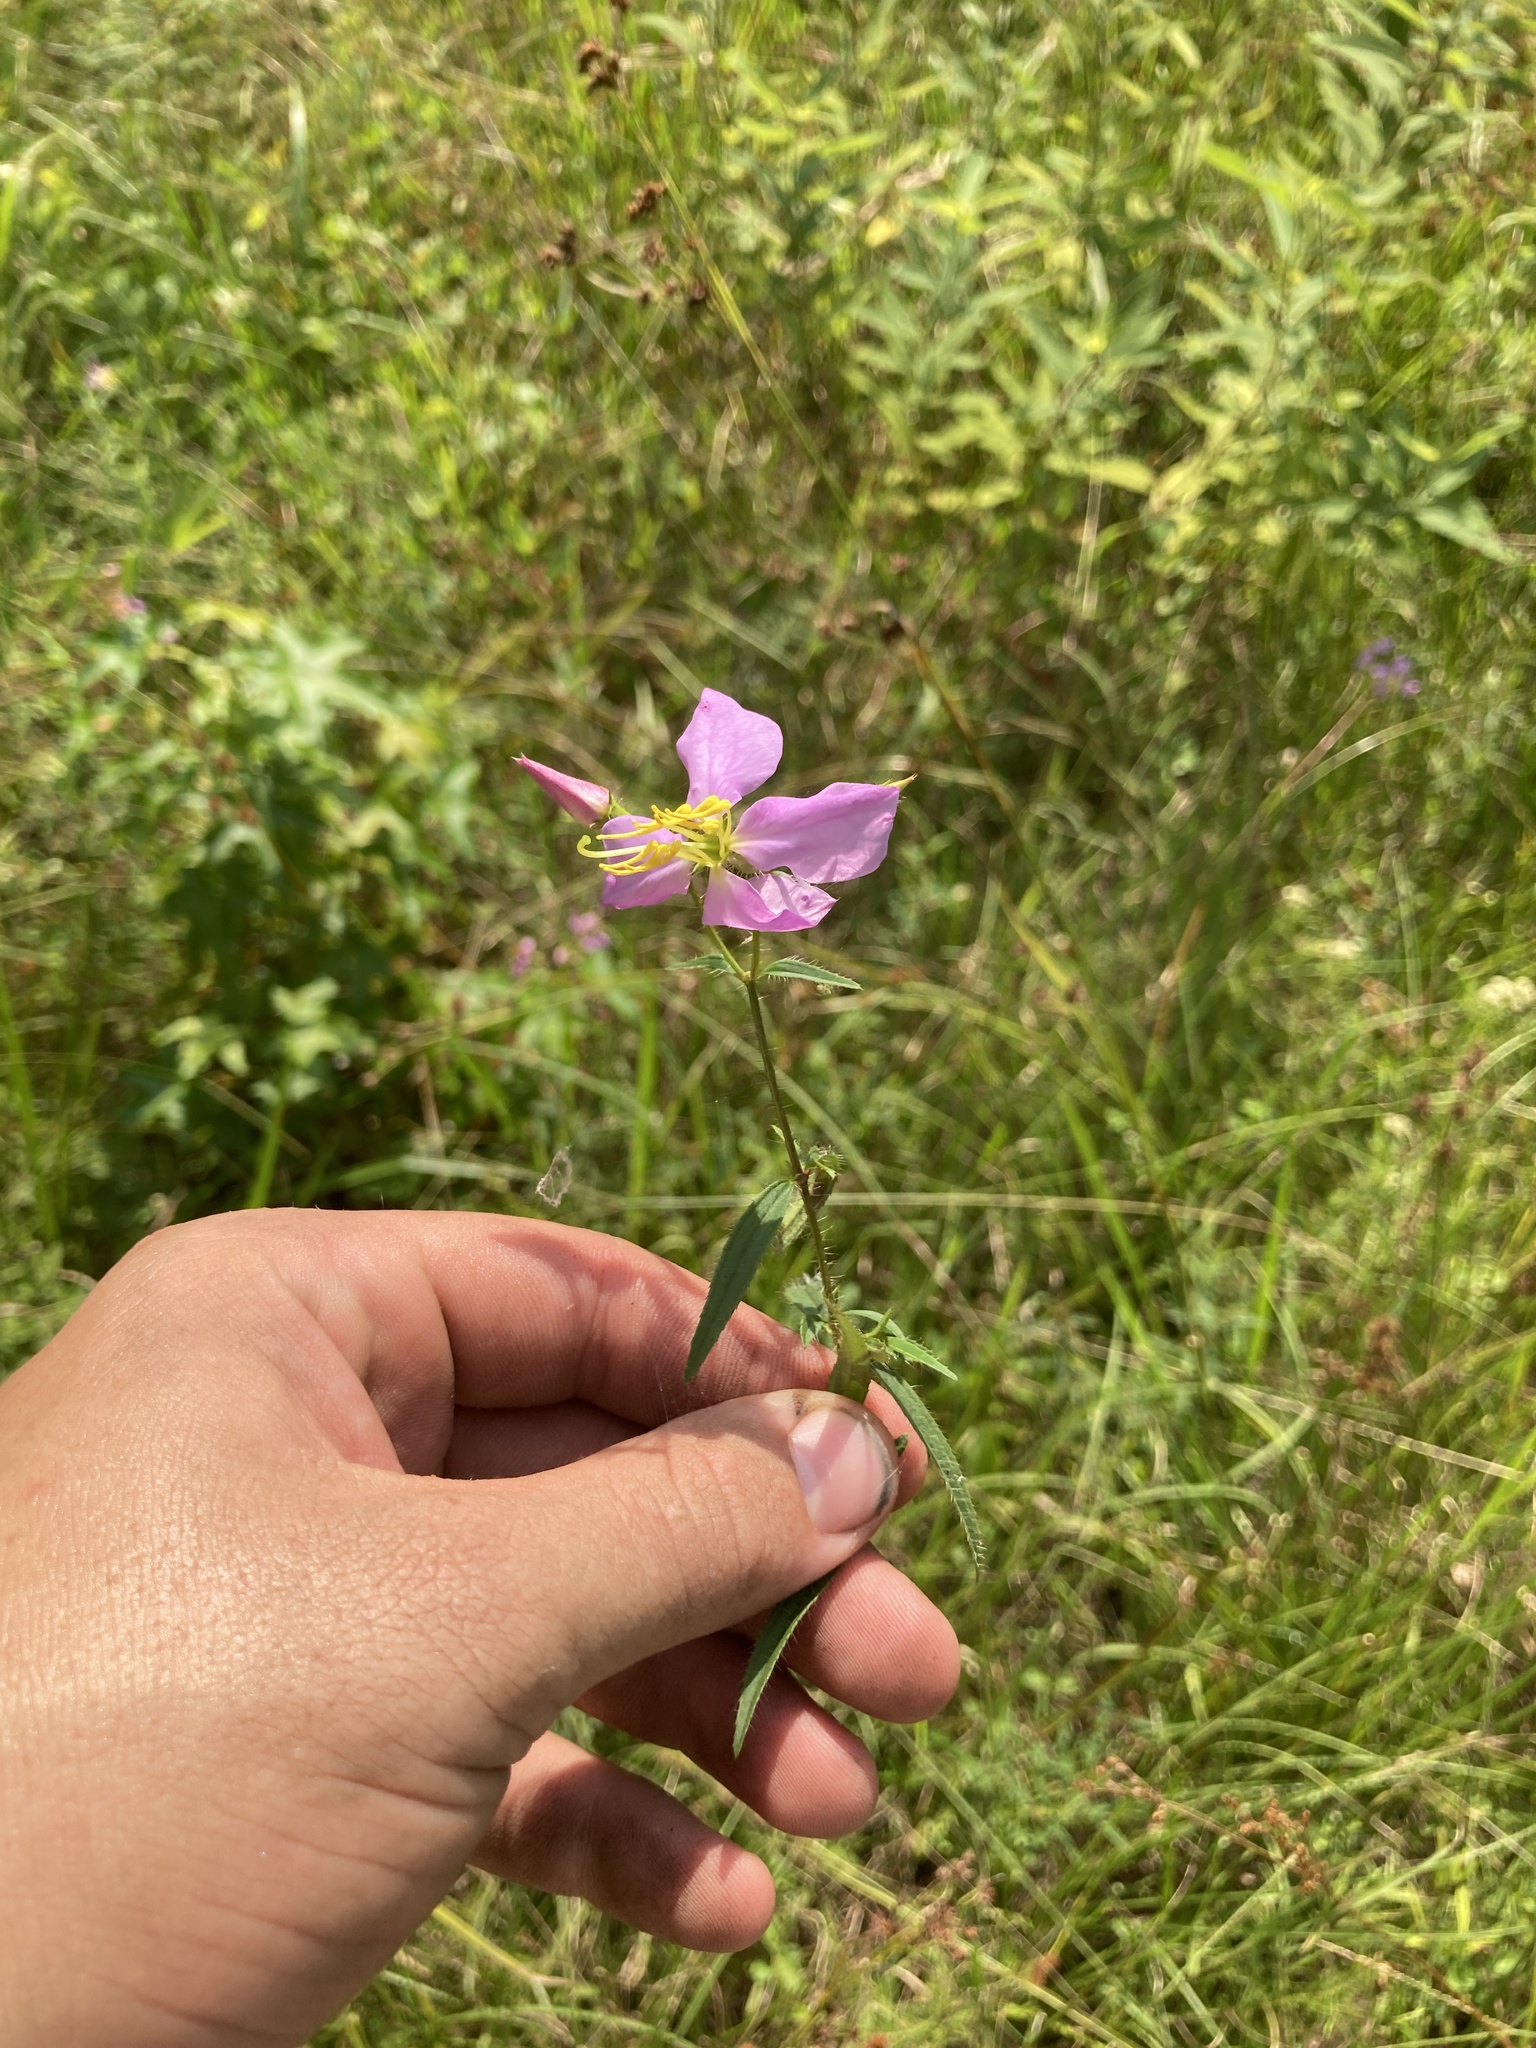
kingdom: Plantae
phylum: Tracheophyta
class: Magnoliopsida
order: Myrtales
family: Melastomataceae
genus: Rhexia
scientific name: Rhexia mariana
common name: Dull meadow-pitcher
